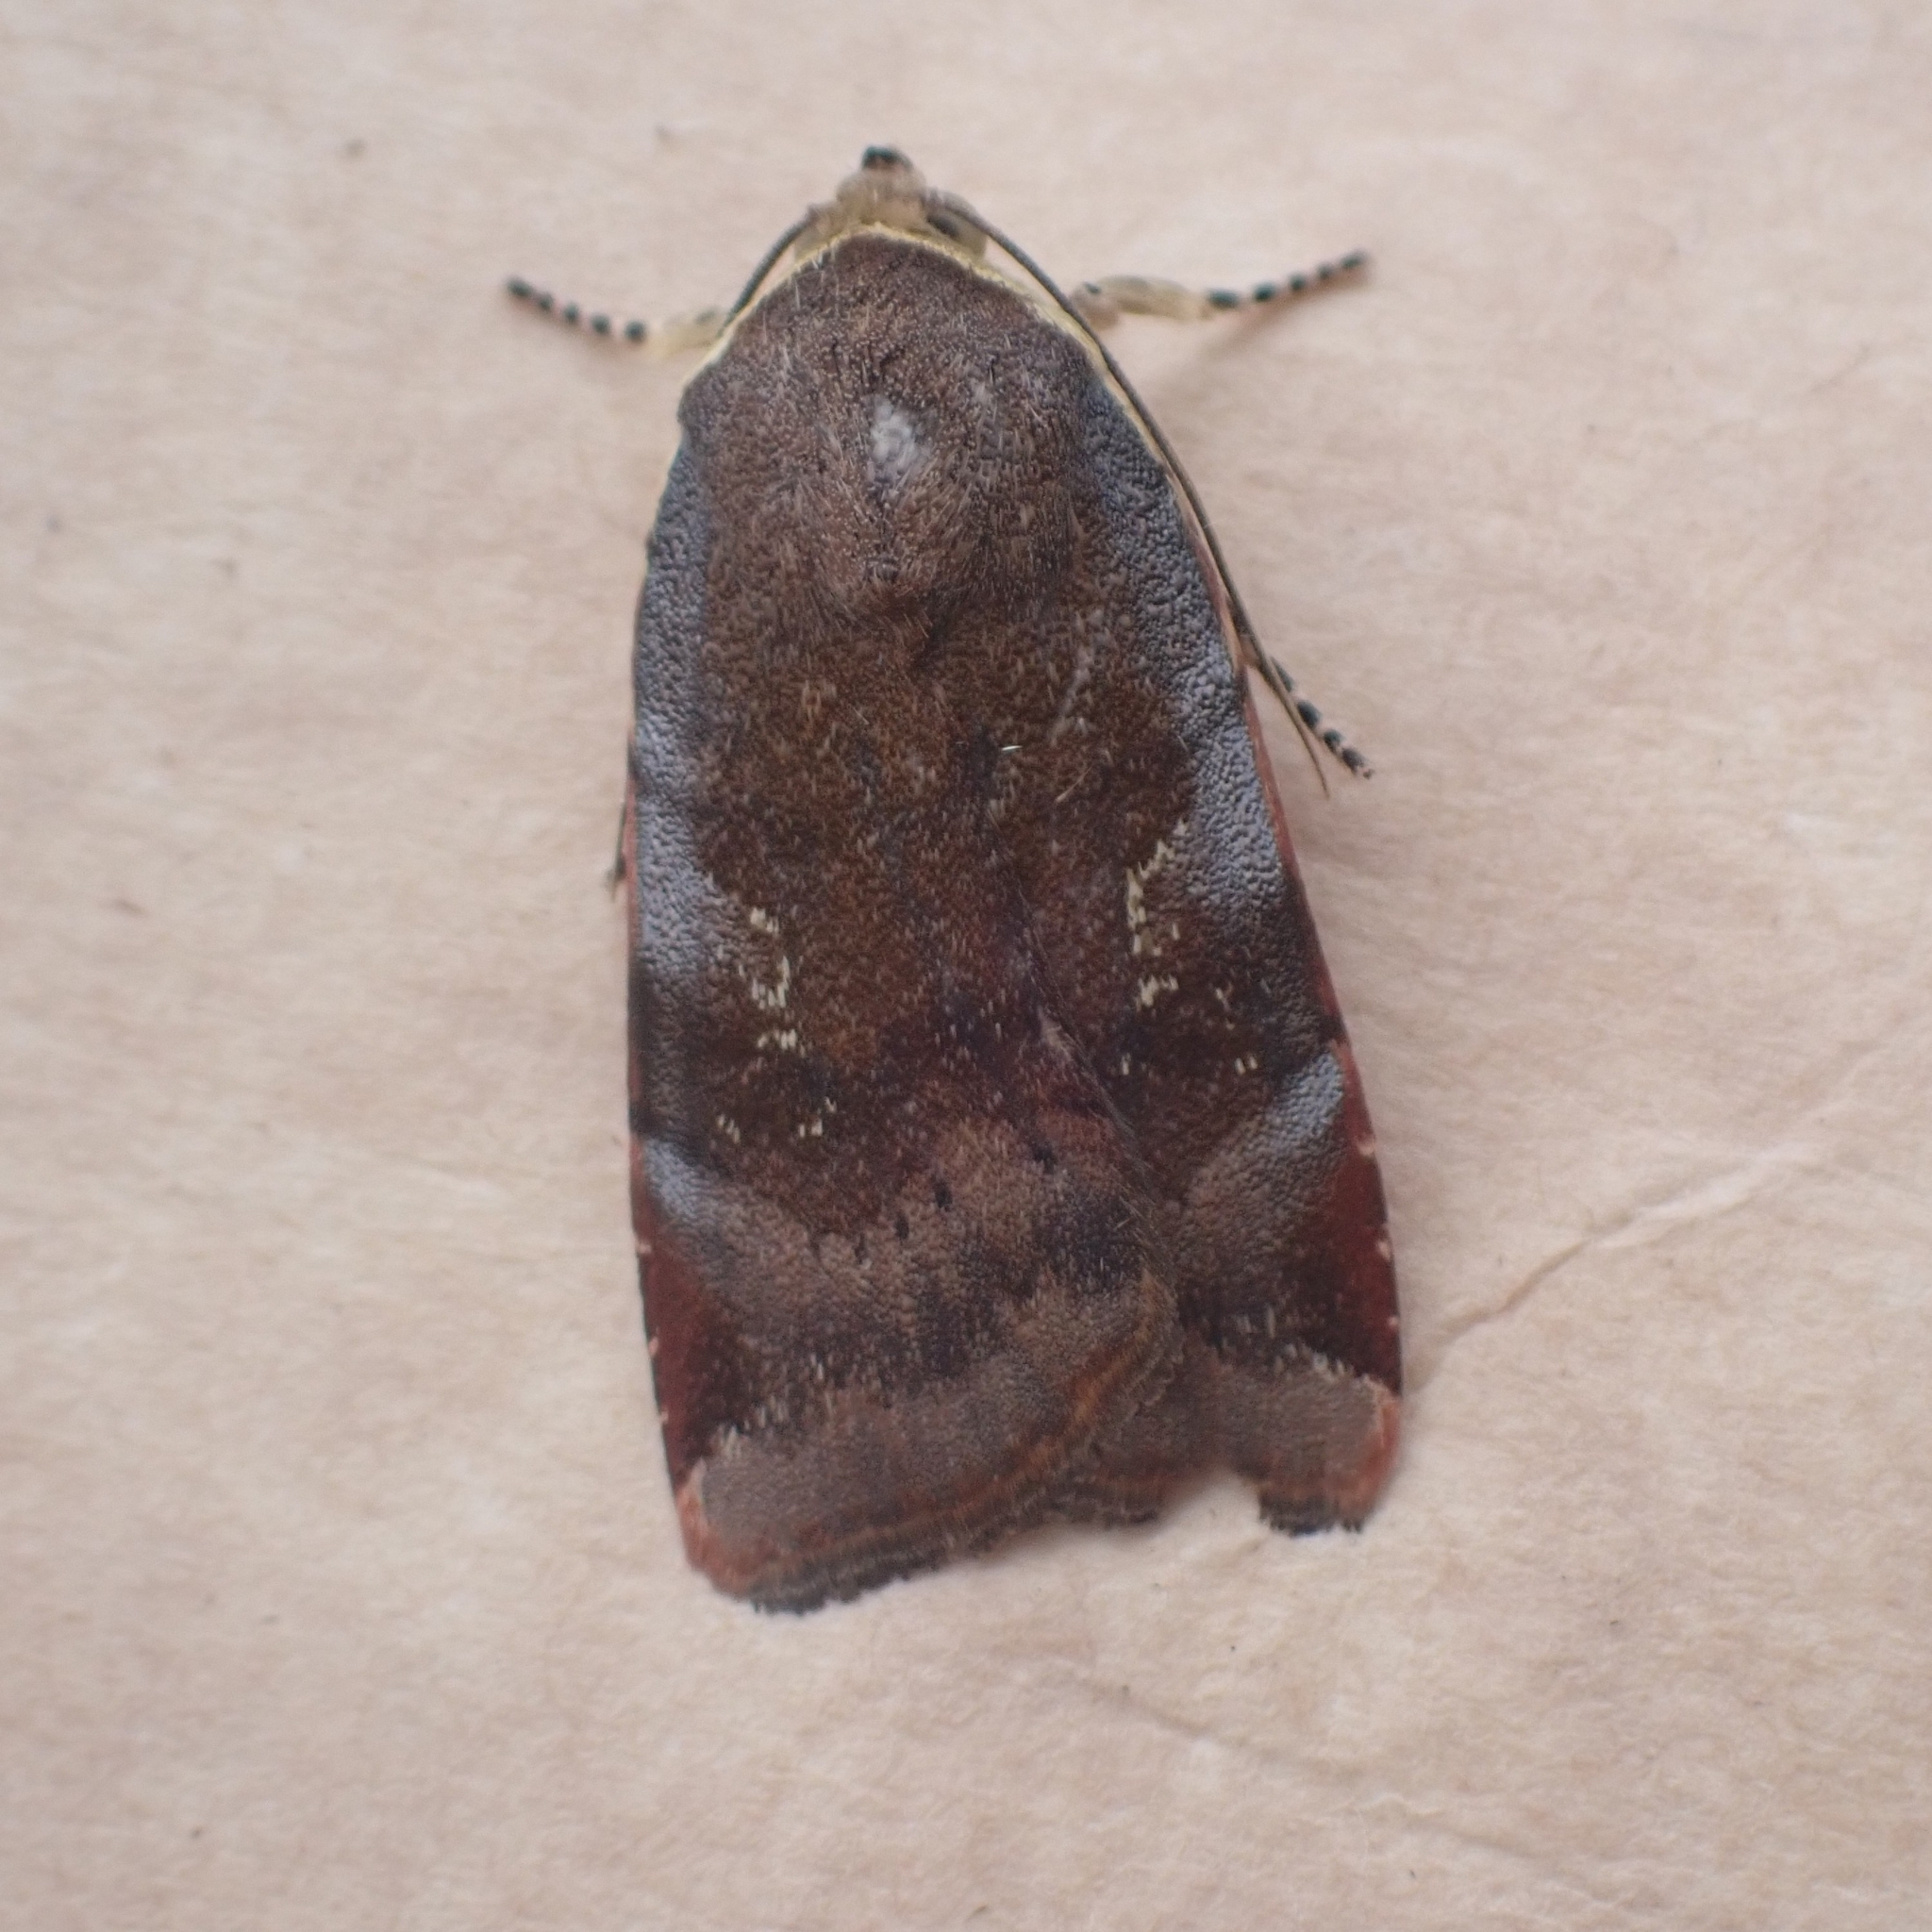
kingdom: Animalia
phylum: Arthropoda
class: Insecta
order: Lepidoptera
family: Noctuidae
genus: Noctua
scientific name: Noctua janthe
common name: Lesser broad-bordered yellow underwing
